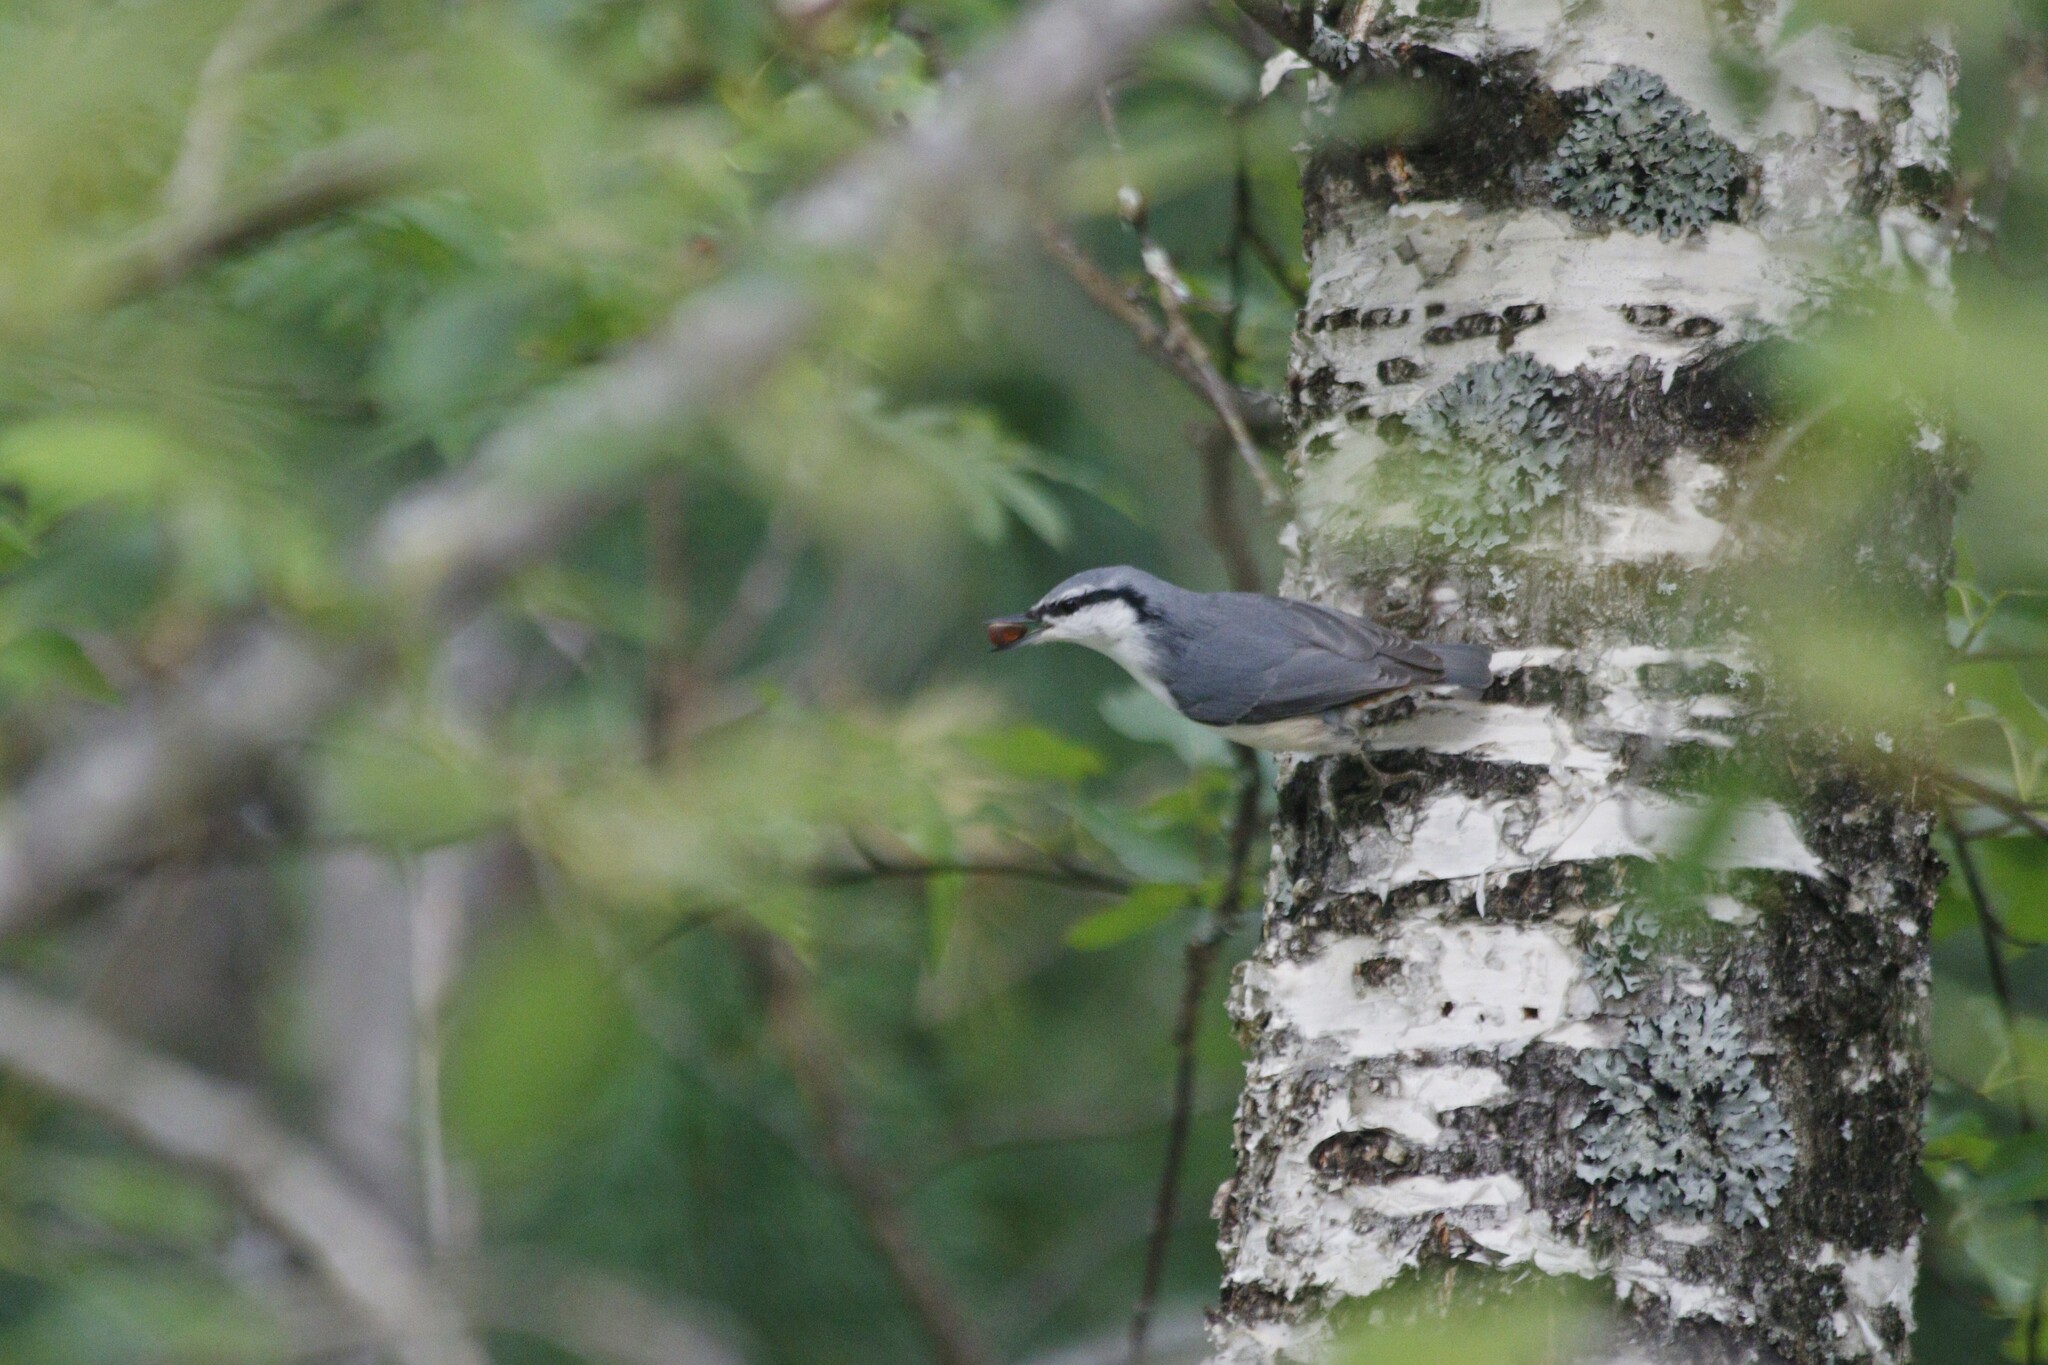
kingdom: Animalia
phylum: Chordata
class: Aves
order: Passeriformes
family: Sittidae
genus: Sitta
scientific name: Sitta europaea
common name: Eurasian nuthatch
